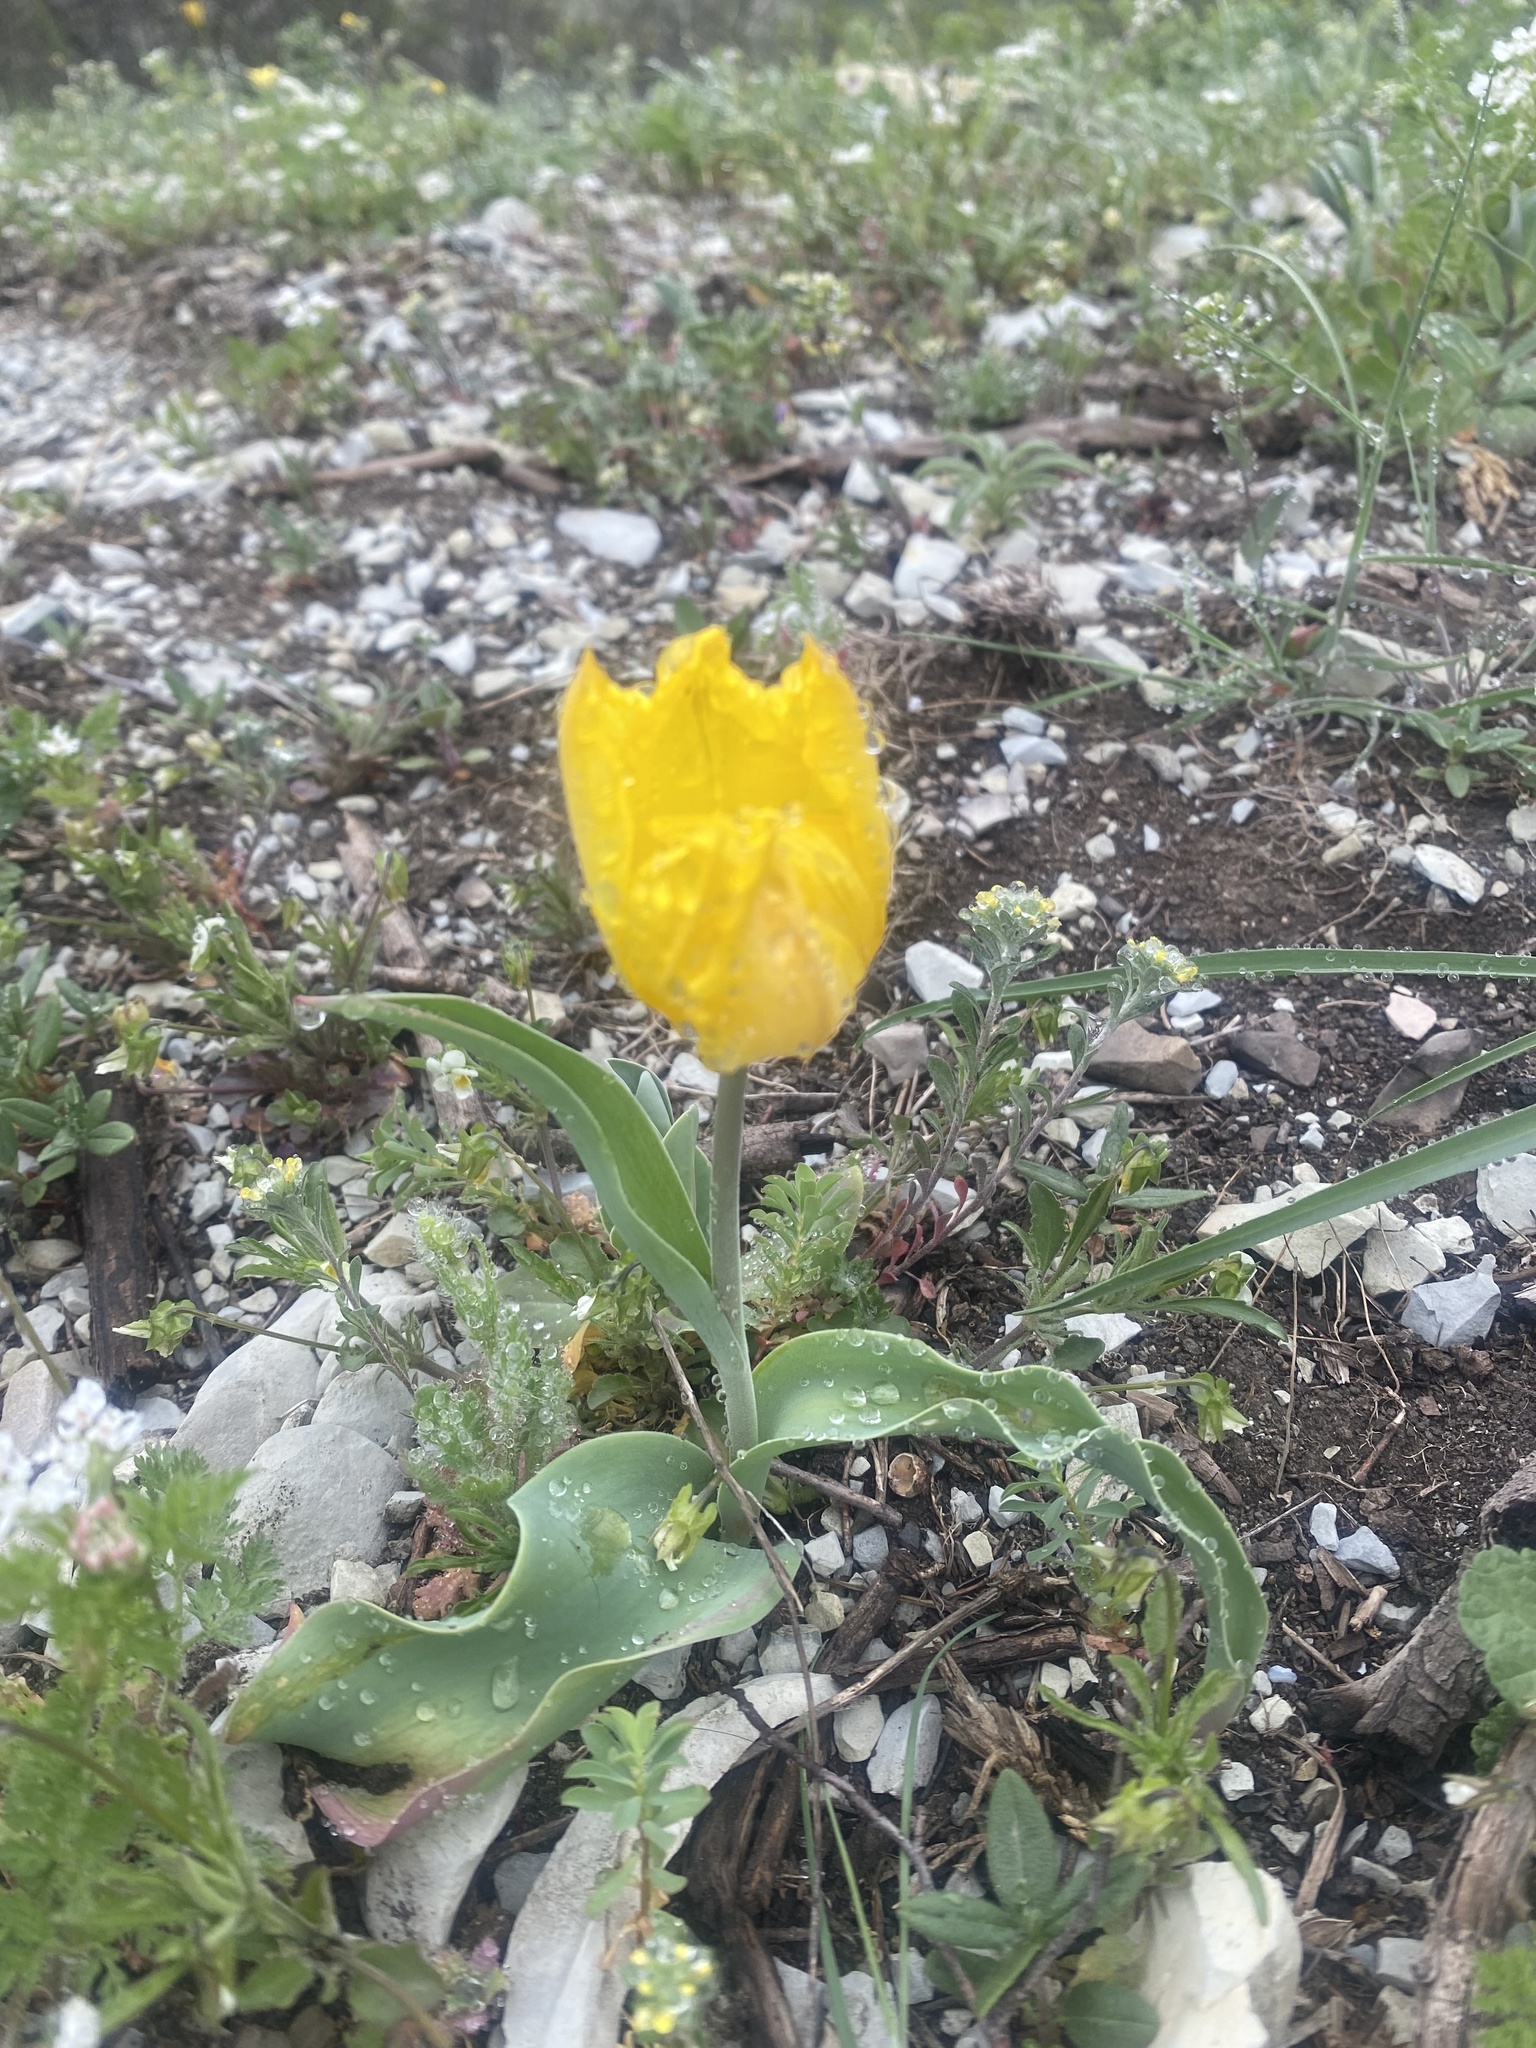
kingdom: Plantae
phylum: Tracheophyta
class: Liliopsida
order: Liliales
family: Liliaceae
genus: Tulipa
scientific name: Tulipa suaveolens
